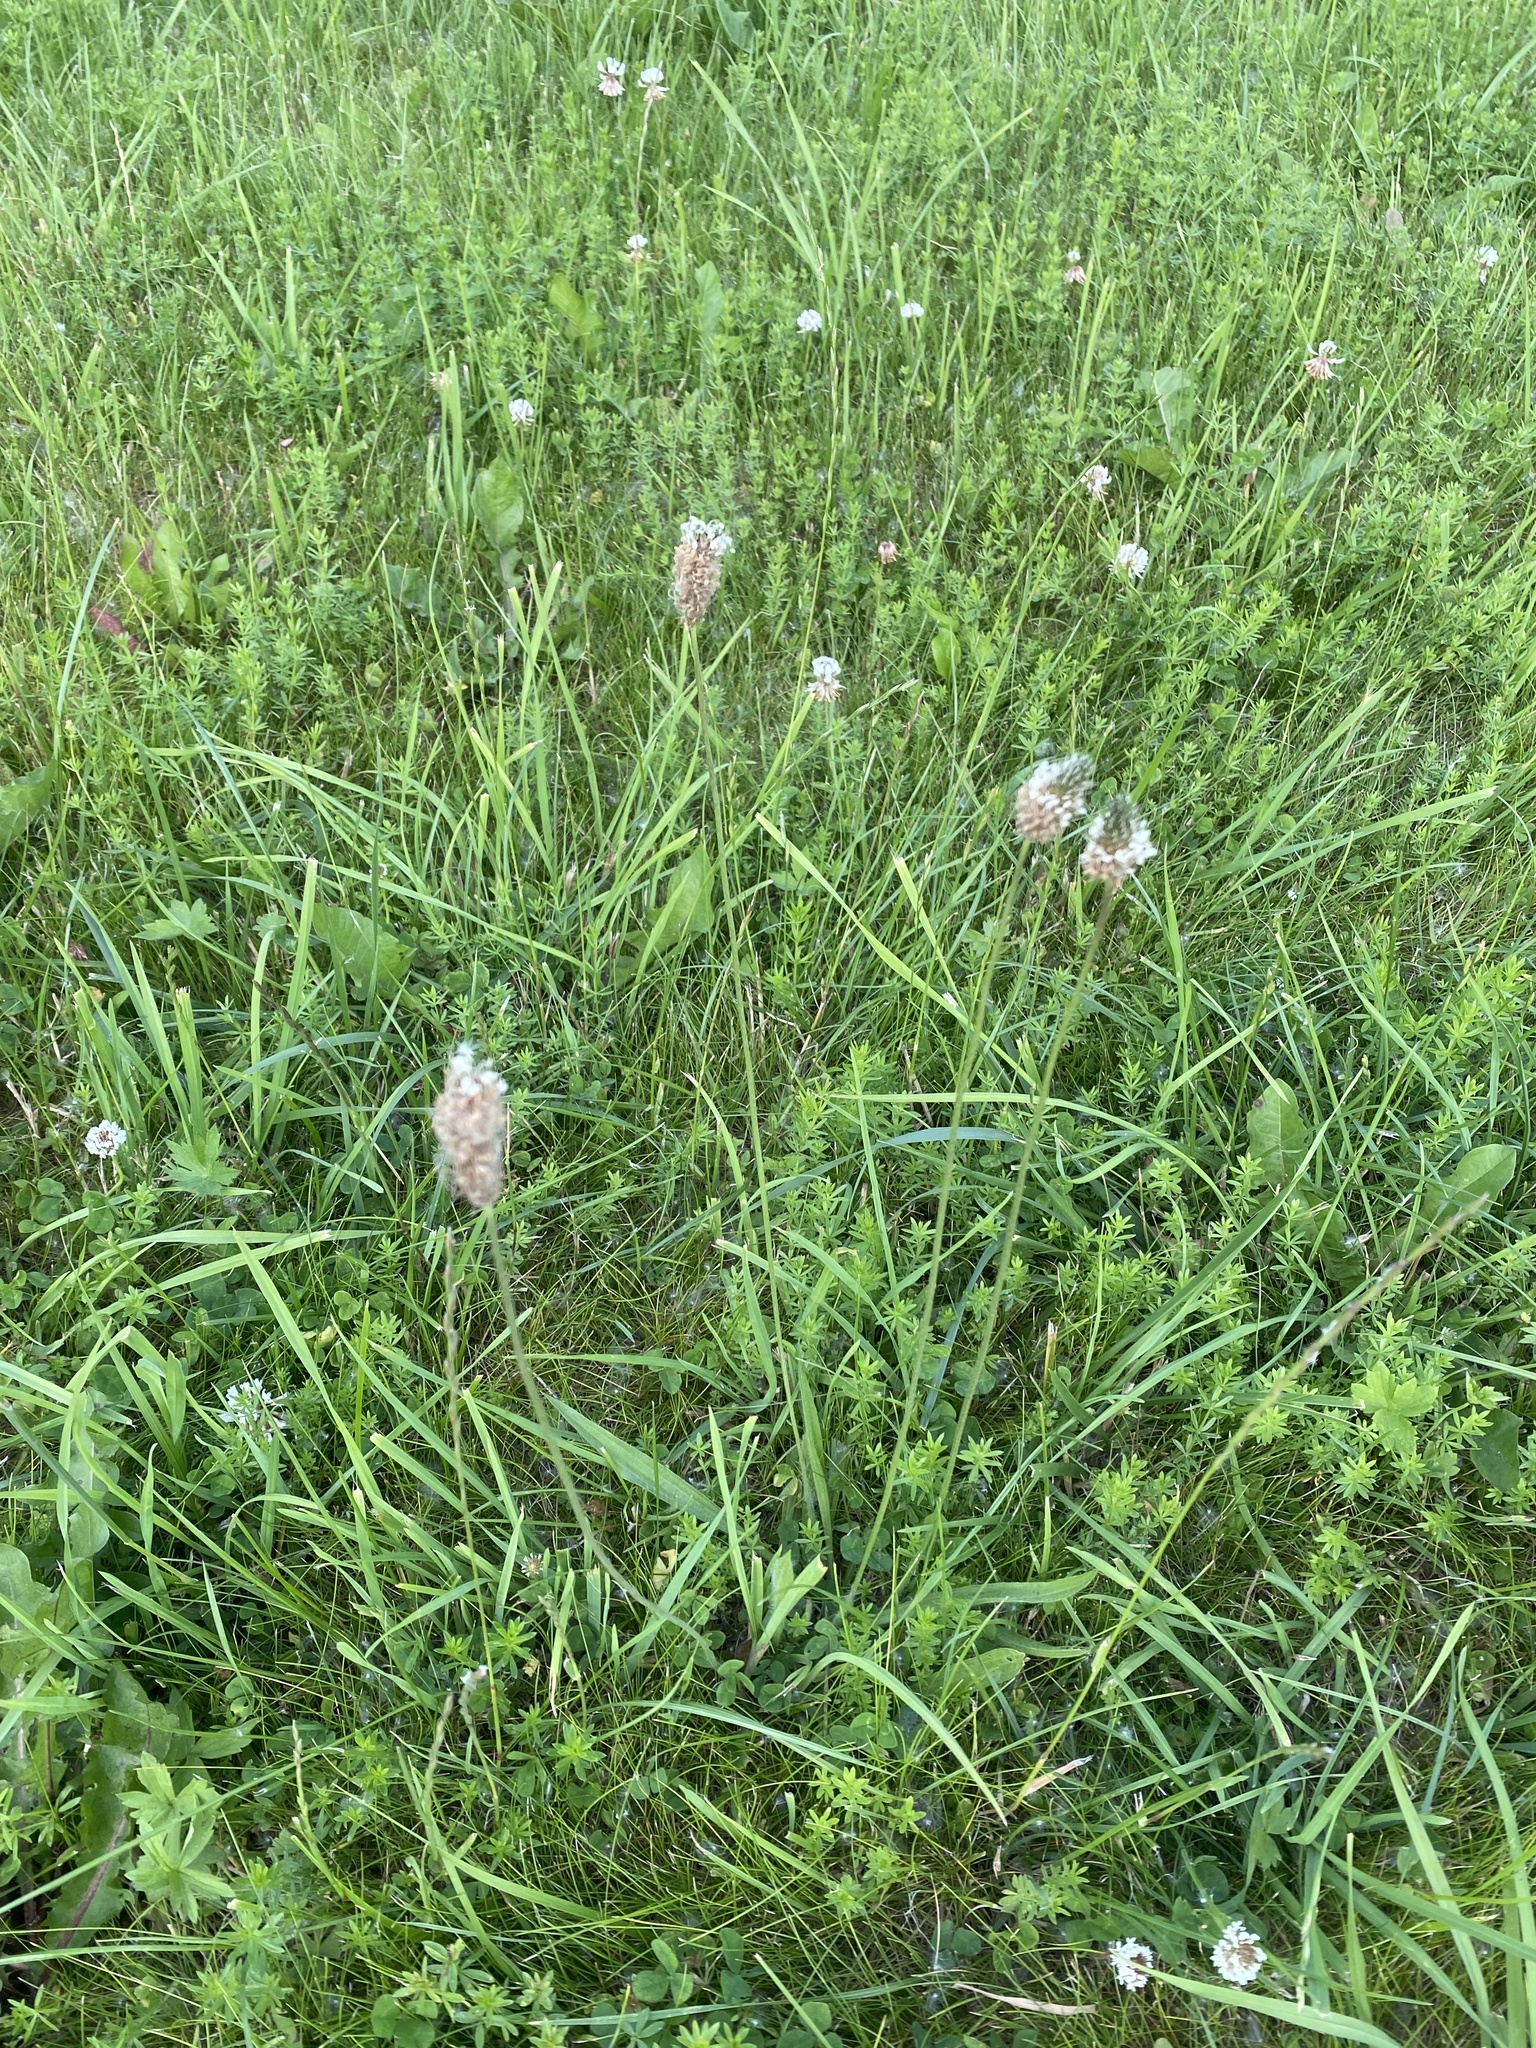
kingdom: Plantae
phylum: Tracheophyta
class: Magnoliopsida
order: Lamiales
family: Plantaginaceae
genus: Plantago
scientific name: Plantago lanceolata
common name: Ribwort plantain
